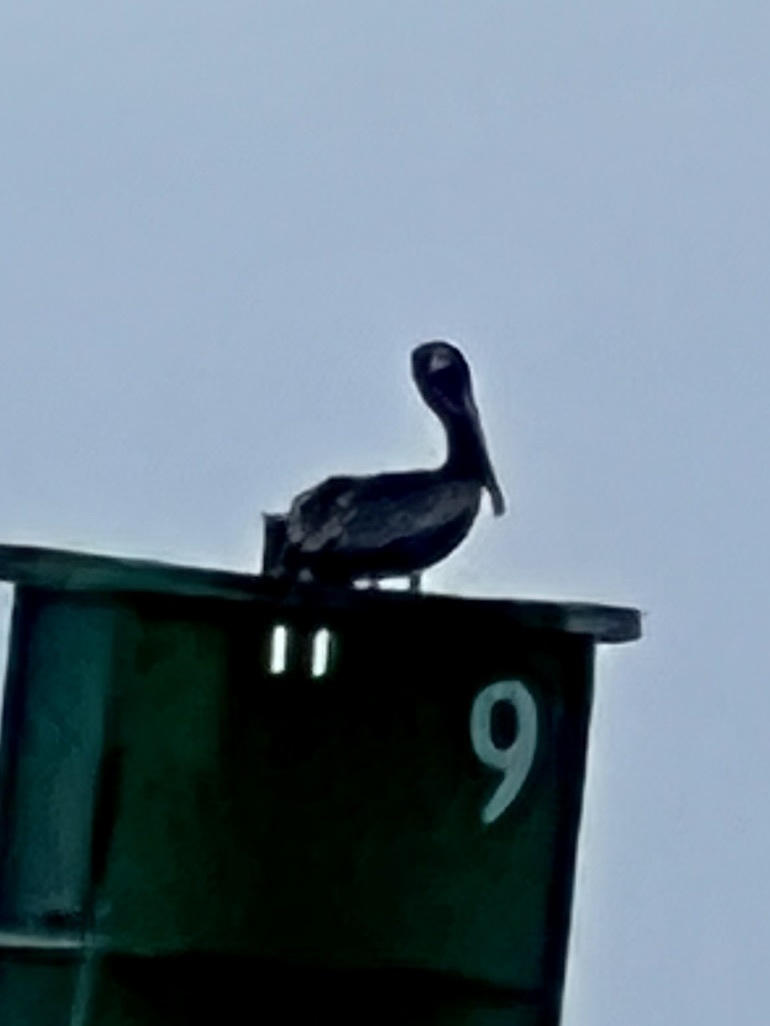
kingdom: Animalia
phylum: Chordata
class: Aves
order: Pelecaniformes
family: Pelecanidae
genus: Pelecanus
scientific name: Pelecanus occidentalis
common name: Brown pelican
